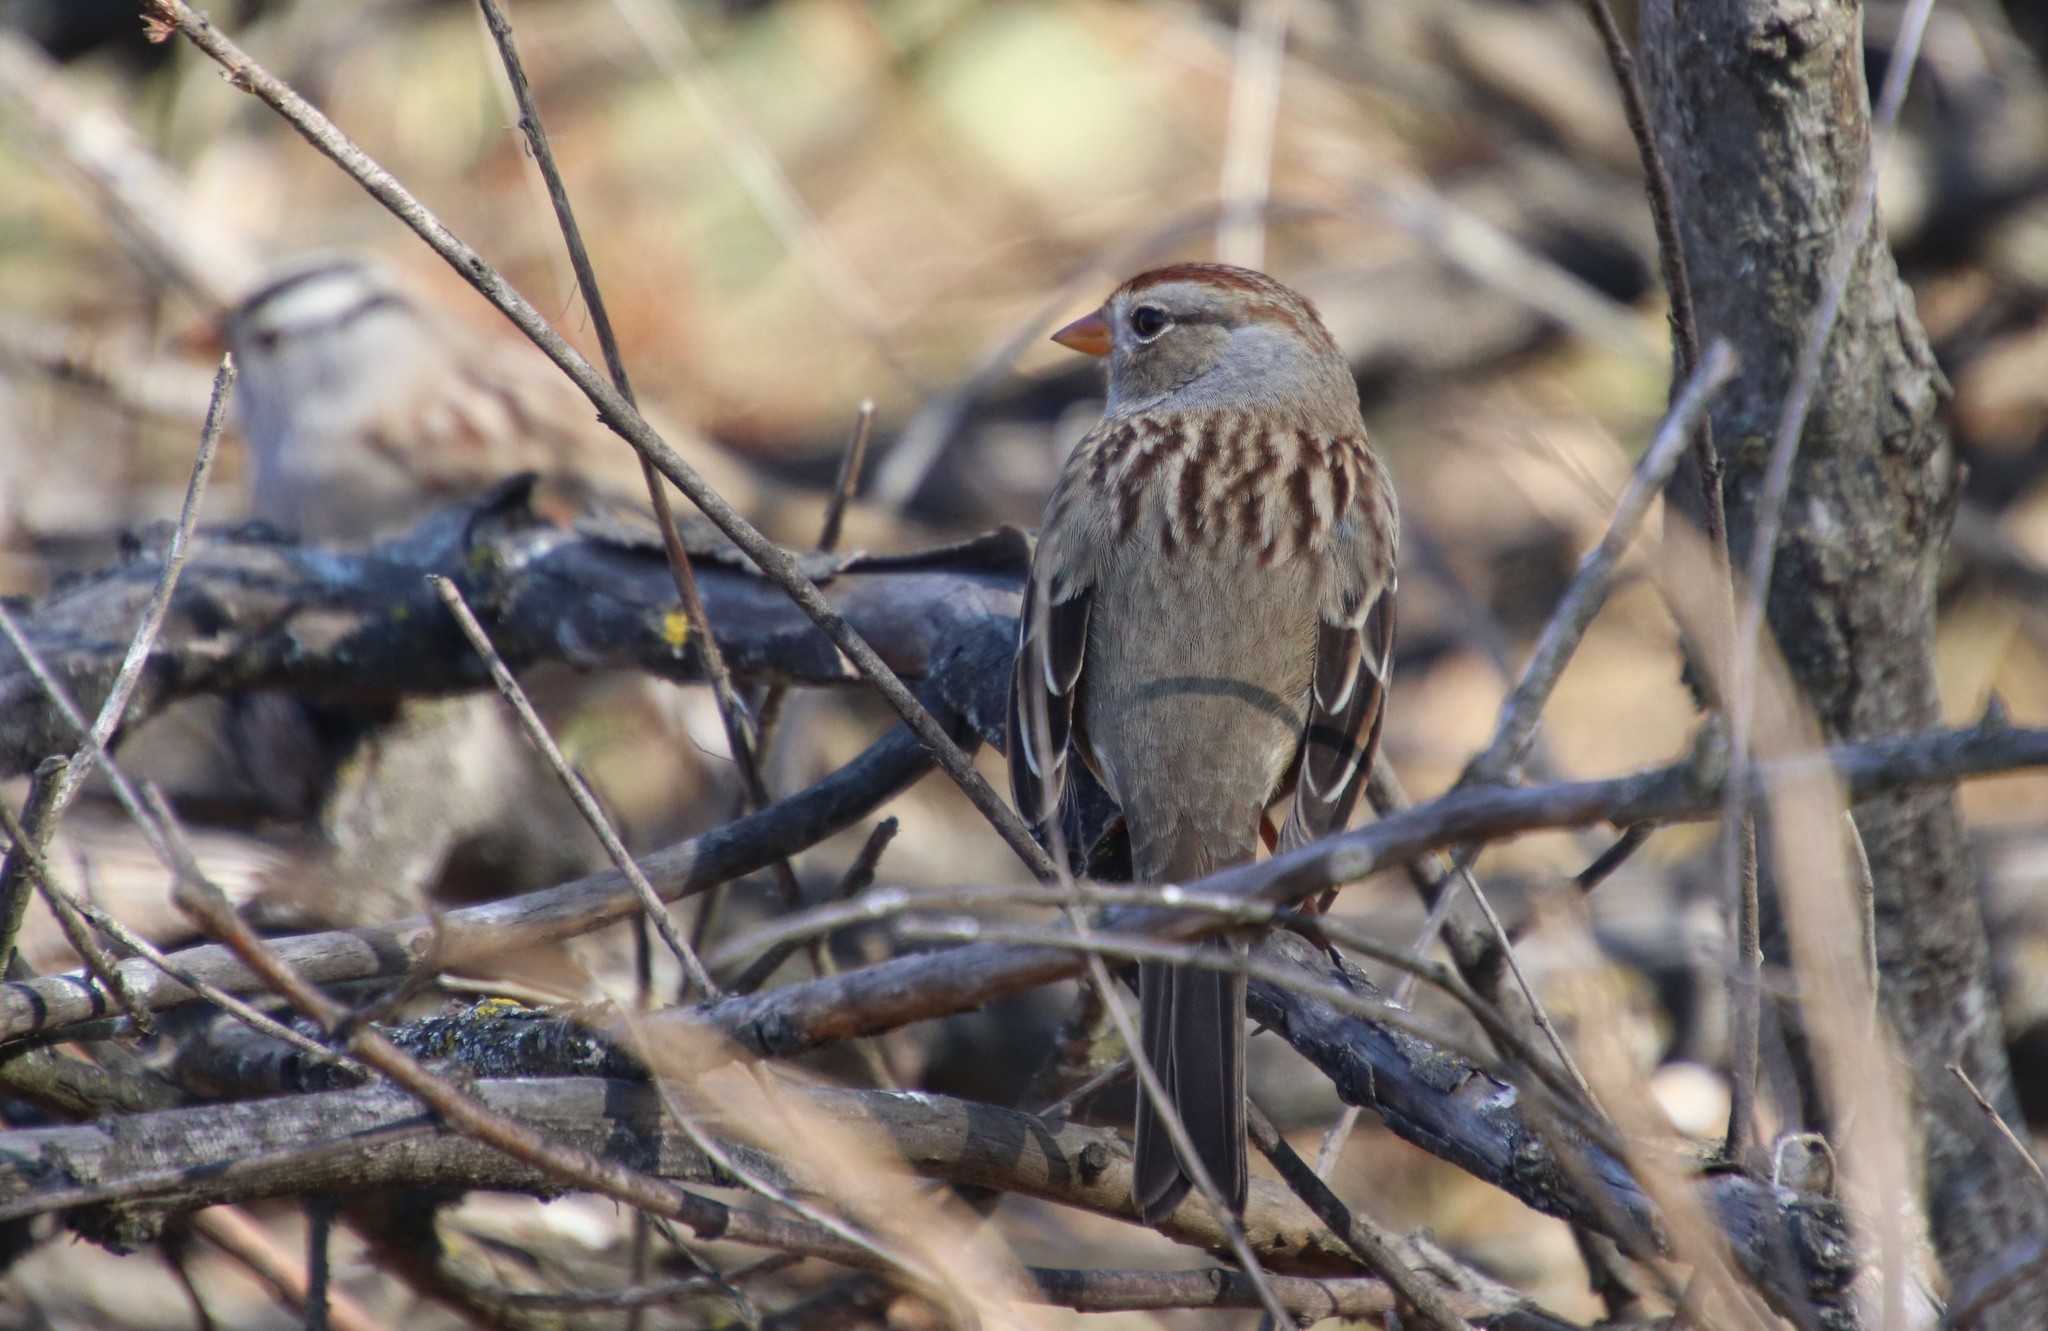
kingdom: Animalia
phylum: Chordata
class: Aves
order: Passeriformes
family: Passerellidae
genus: Zonotrichia
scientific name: Zonotrichia leucophrys
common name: White-crowned sparrow
